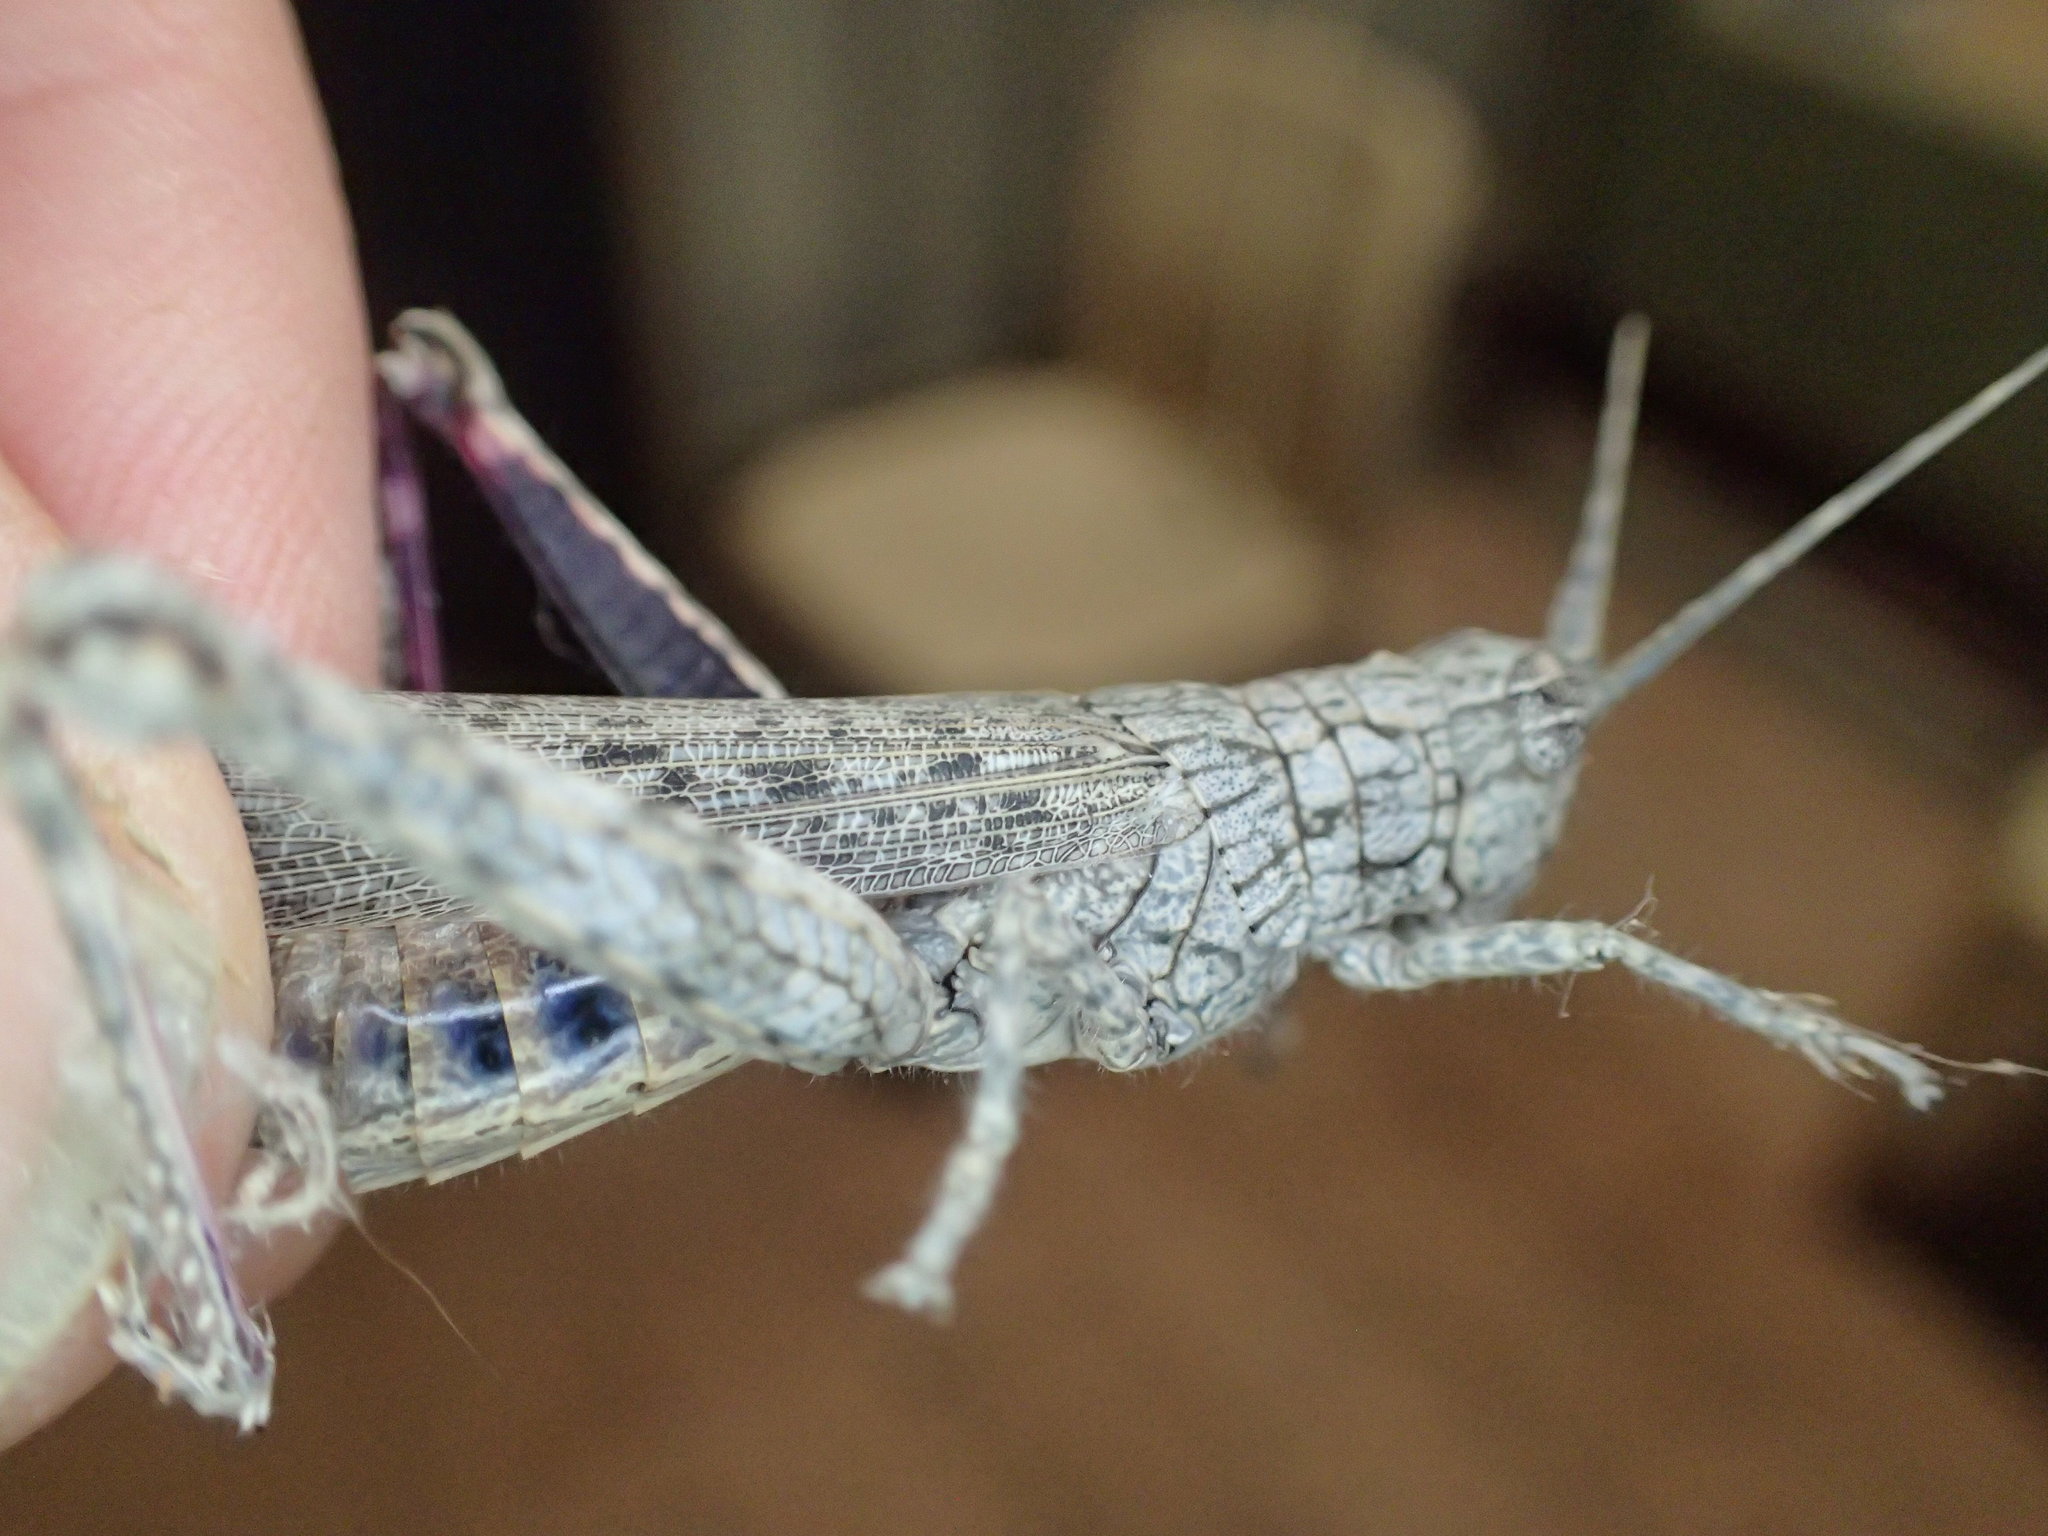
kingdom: Animalia
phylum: Arthropoda
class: Insecta
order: Orthoptera
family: Acrididae
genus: Coryphistes
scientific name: Coryphistes interioris
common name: Hairy coryphistes
